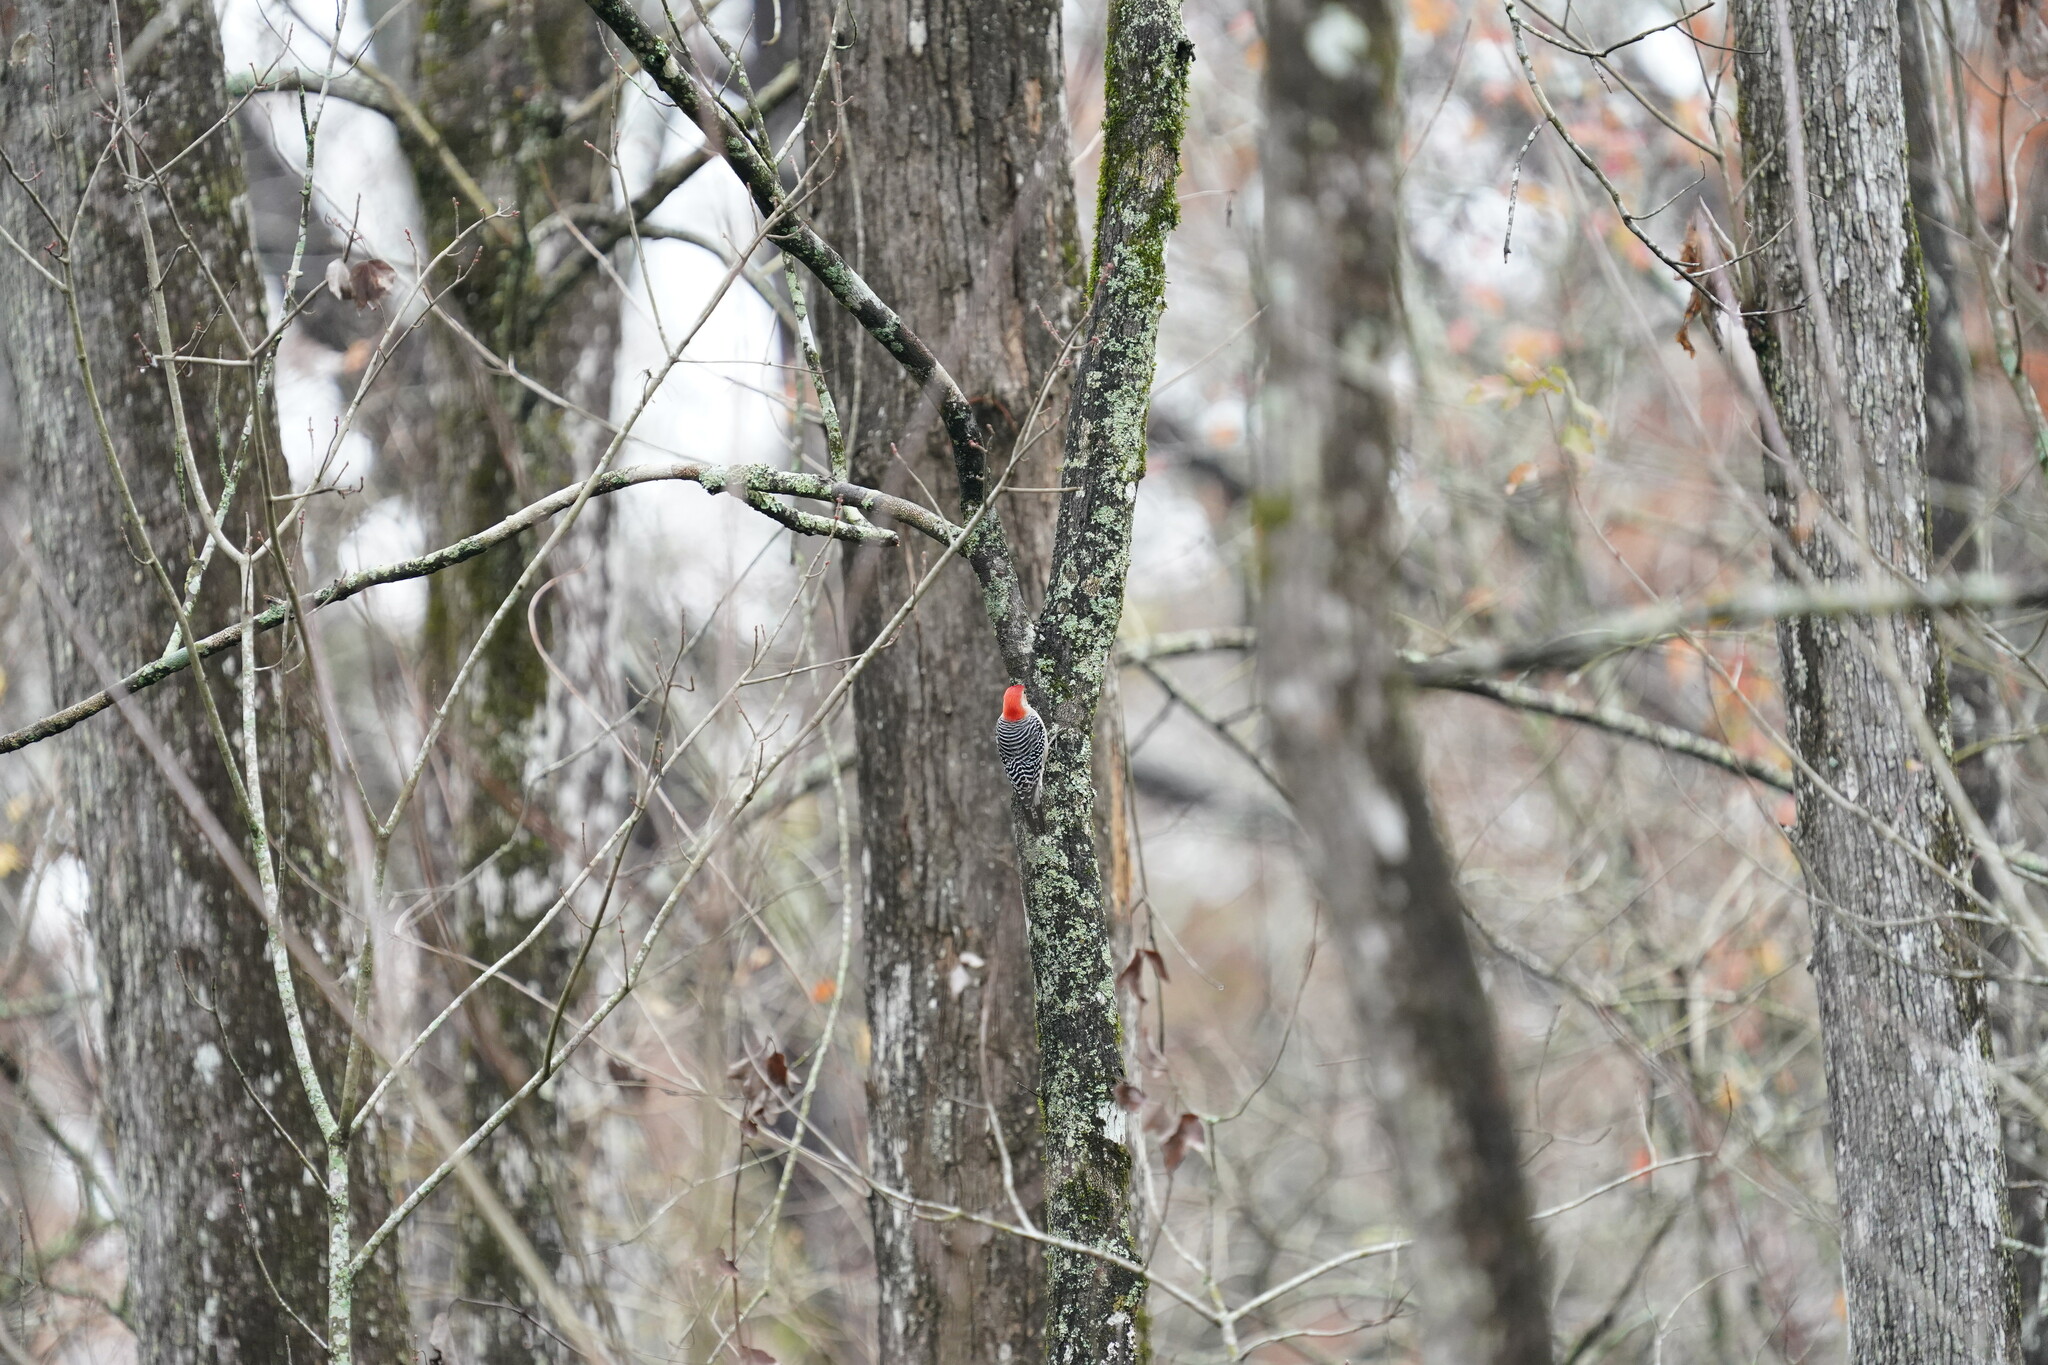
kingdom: Animalia
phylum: Chordata
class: Aves
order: Piciformes
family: Picidae
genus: Melanerpes
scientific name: Melanerpes carolinus
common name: Red-bellied woodpecker
